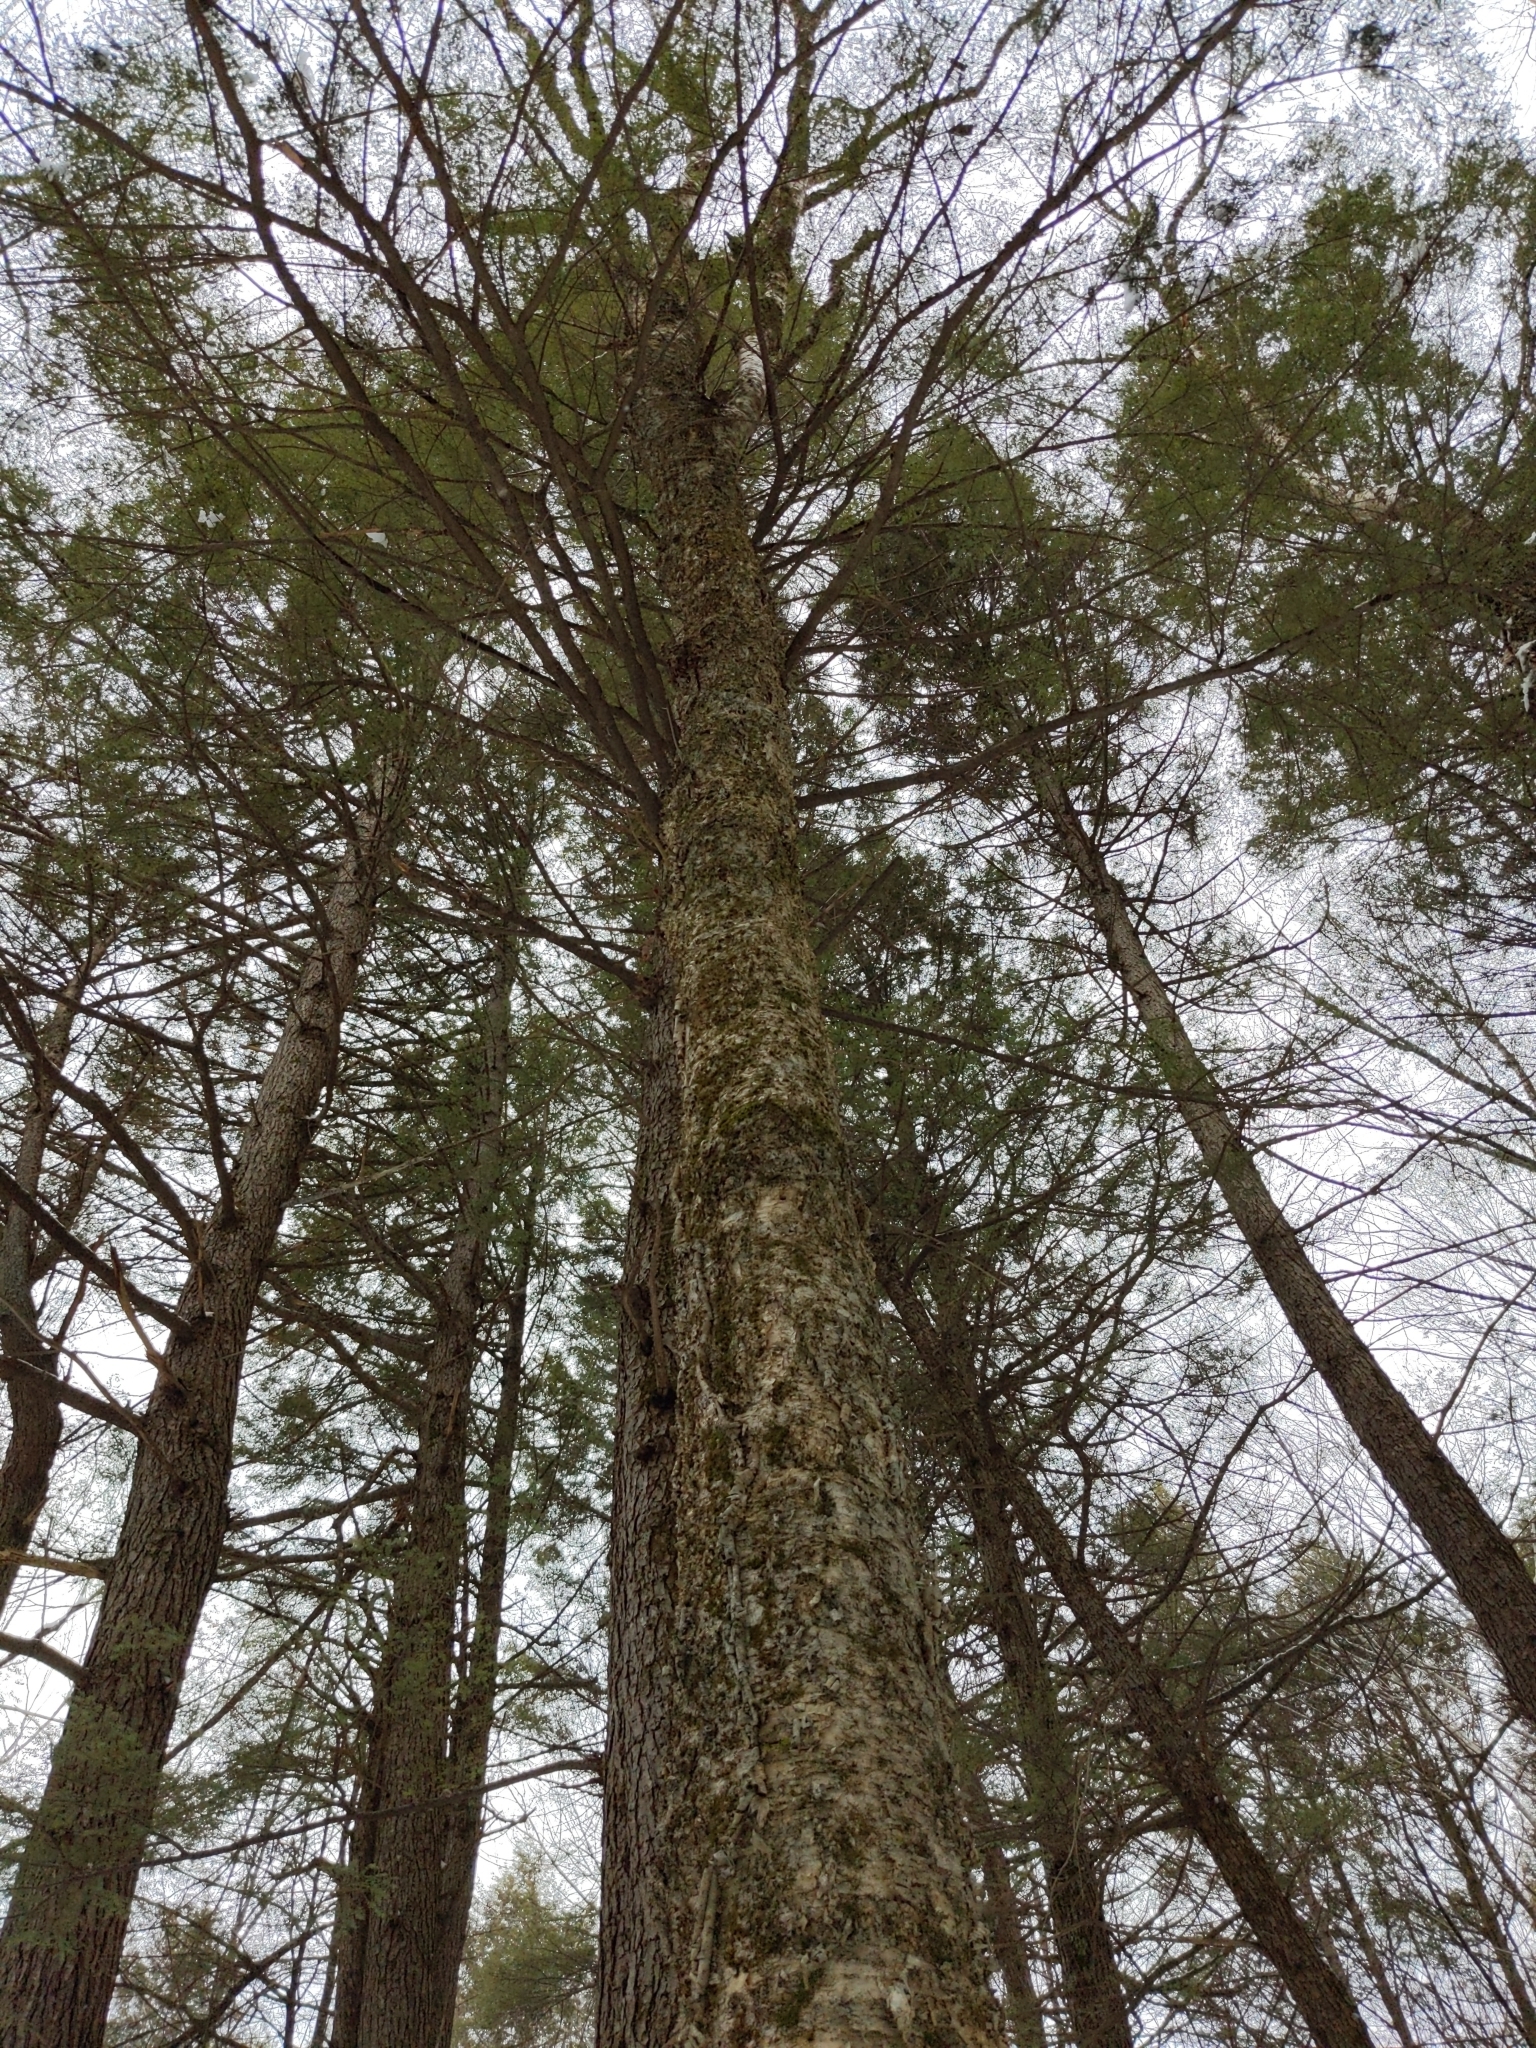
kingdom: Plantae
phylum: Tracheophyta
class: Magnoliopsida
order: Fagales
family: Betulaceae
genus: Betula
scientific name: Betula alleghaniensis
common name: Yellow birch
